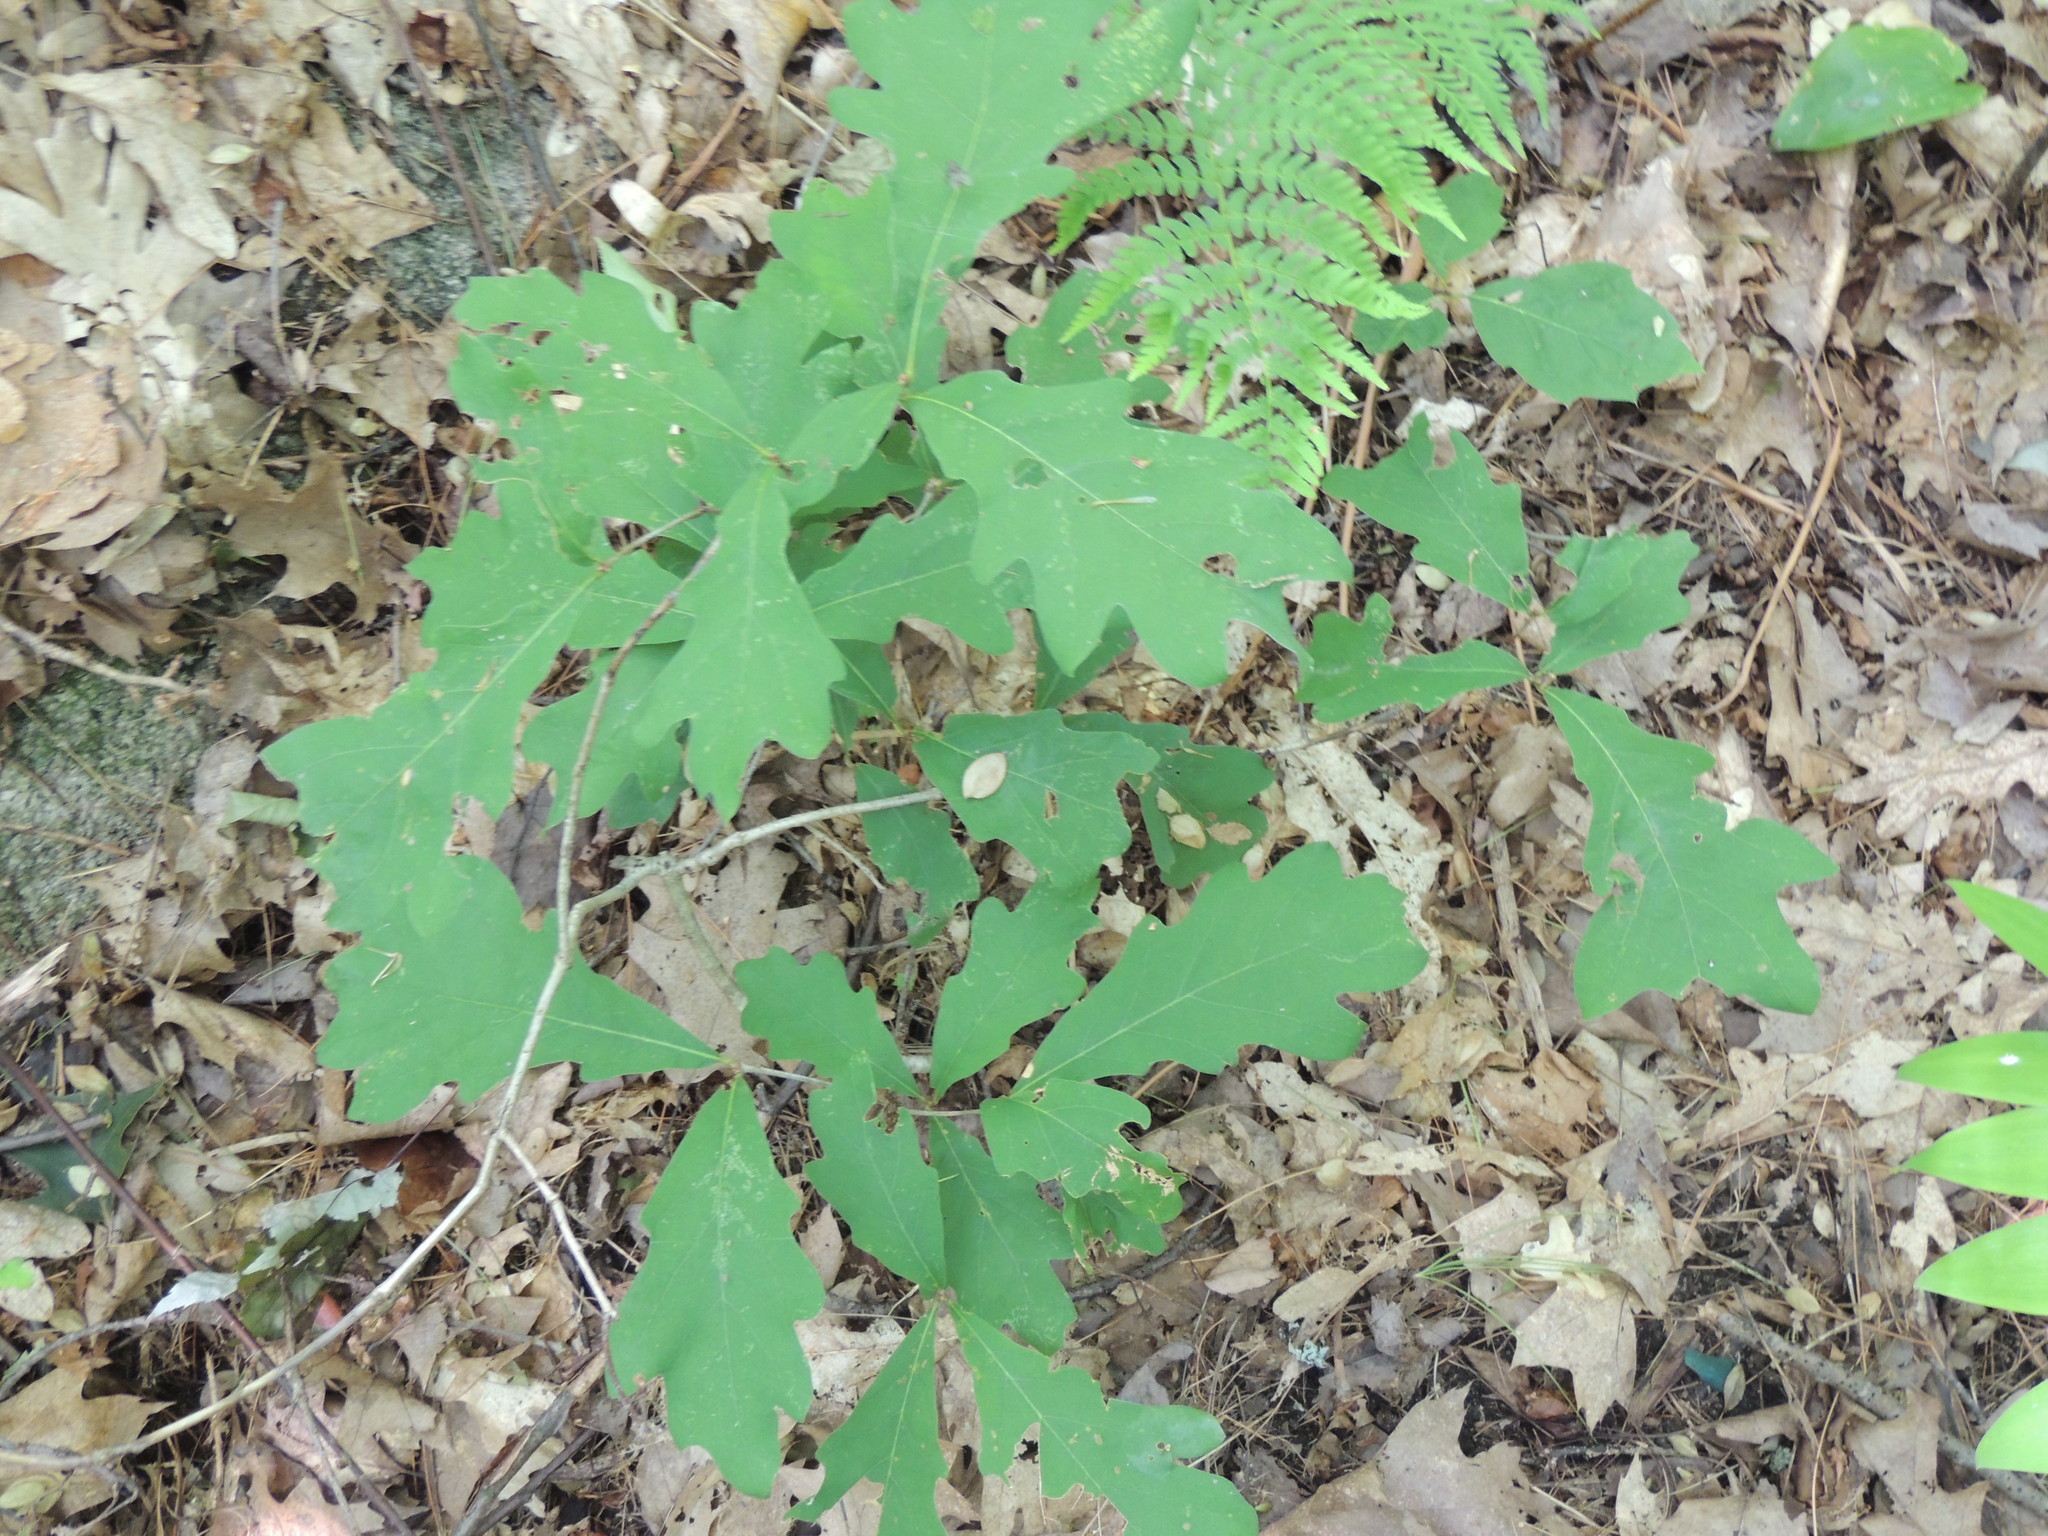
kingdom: Plantae
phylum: Tracheophyta
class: Magnoliopsida
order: Fagales
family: Fagaceae
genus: Quercus
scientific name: Quercus alba
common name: White oak
